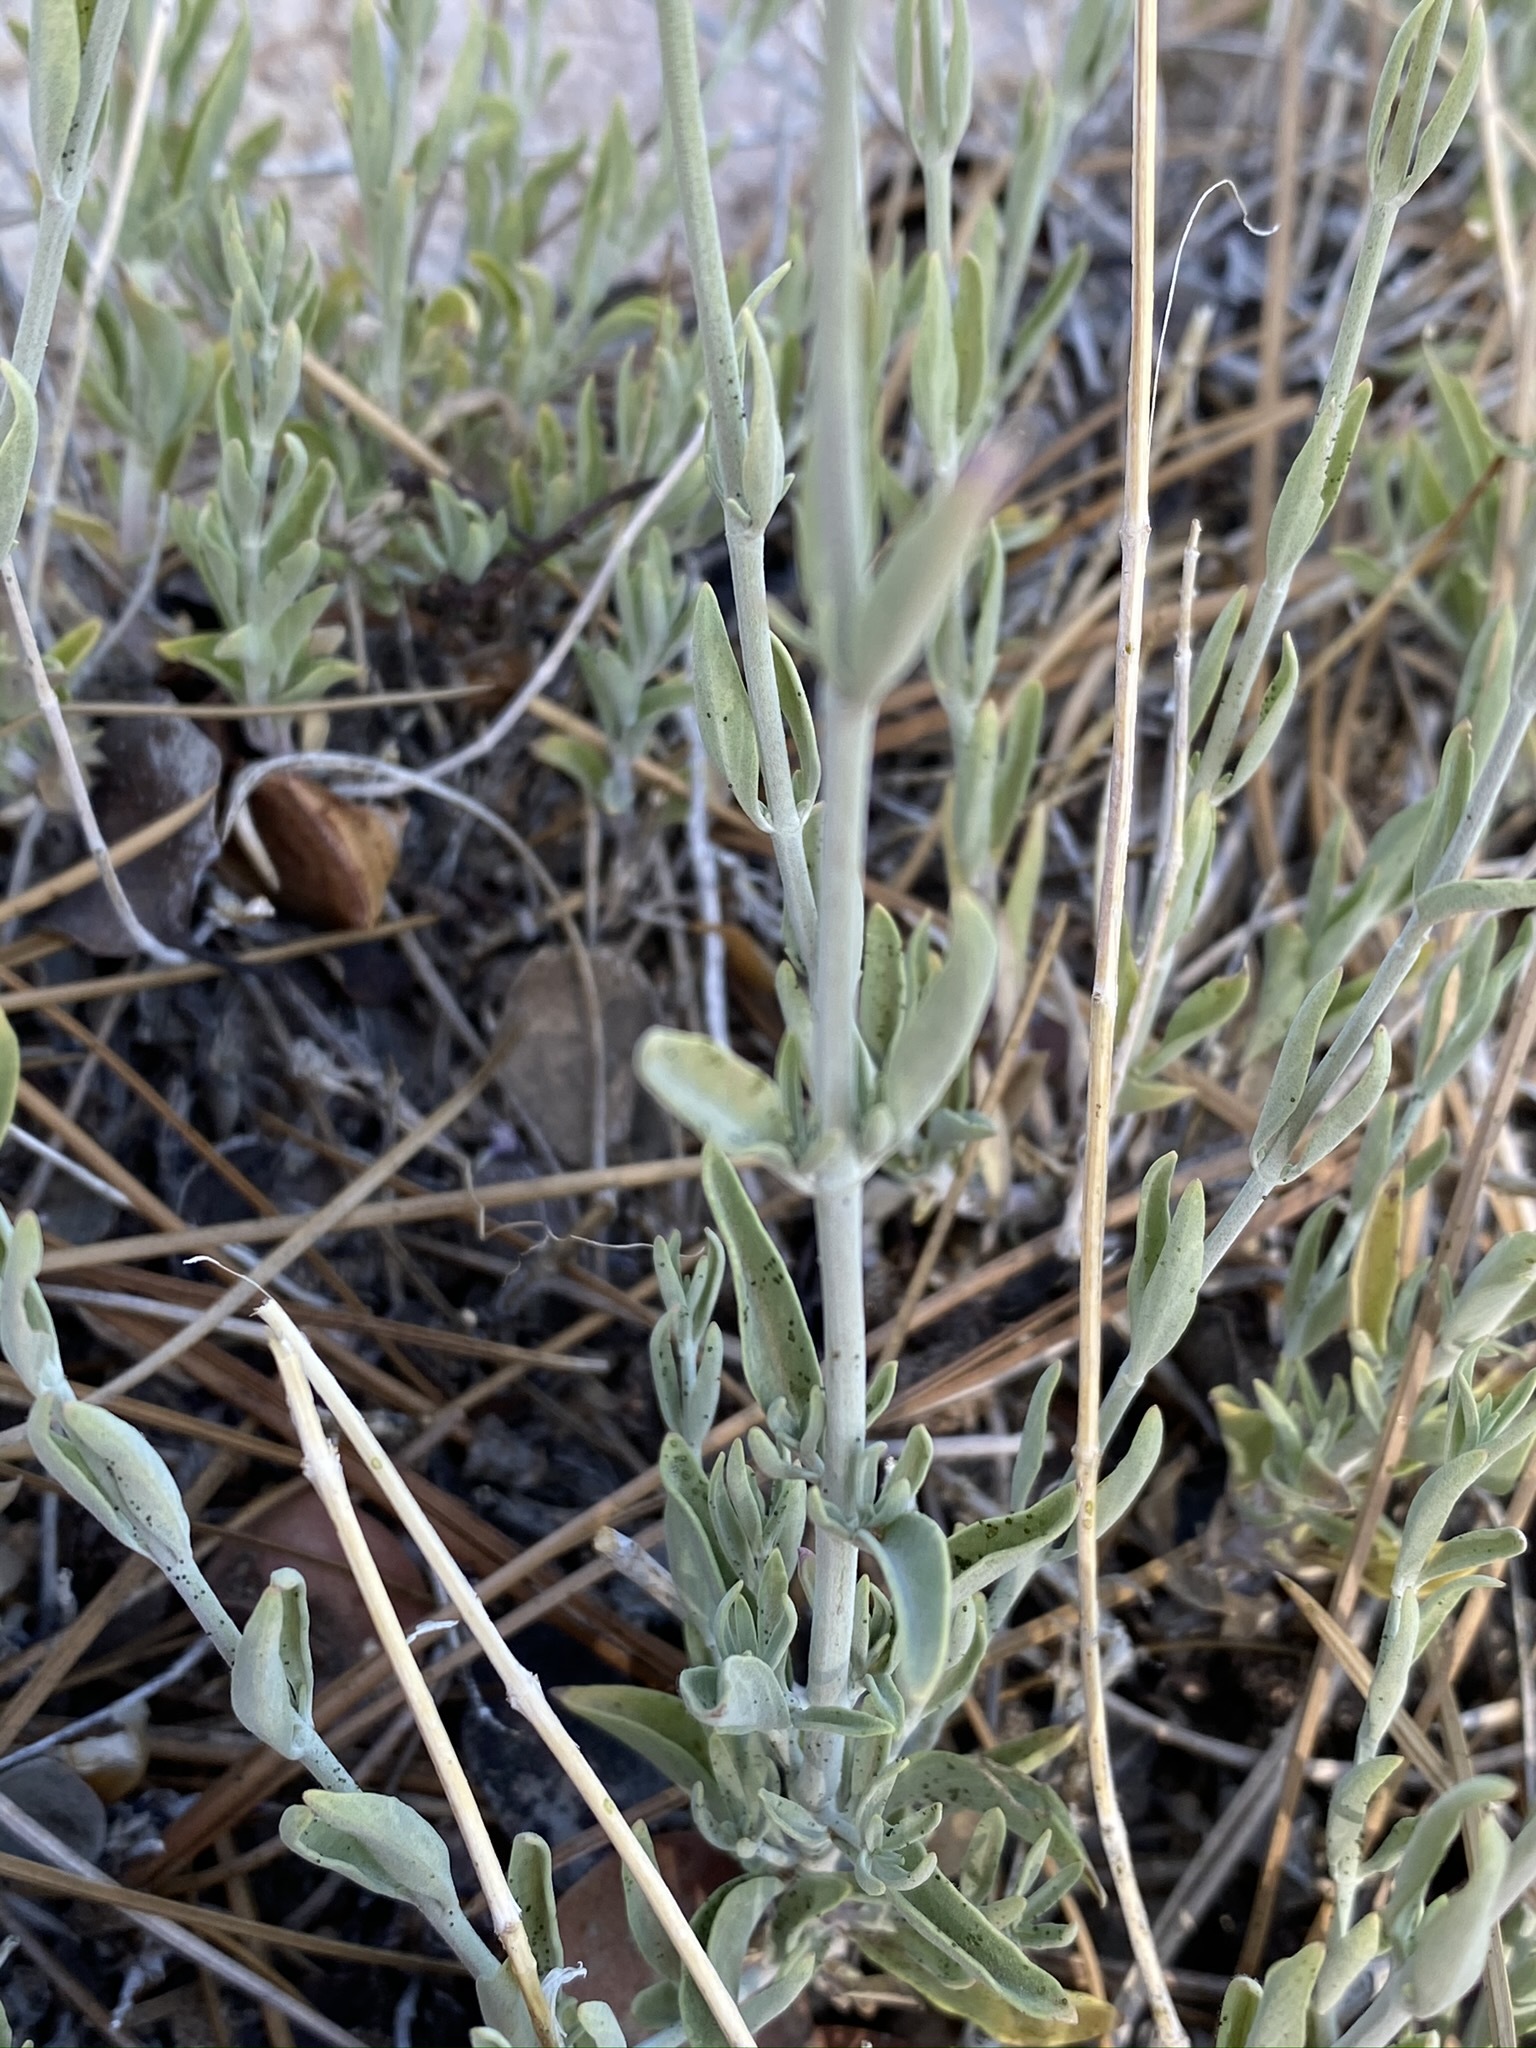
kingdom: Plantae
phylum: Tracheophyta
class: Magnoliopsida
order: Lamiales
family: Lamiaceae
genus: Monardella
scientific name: Monardella linoides
